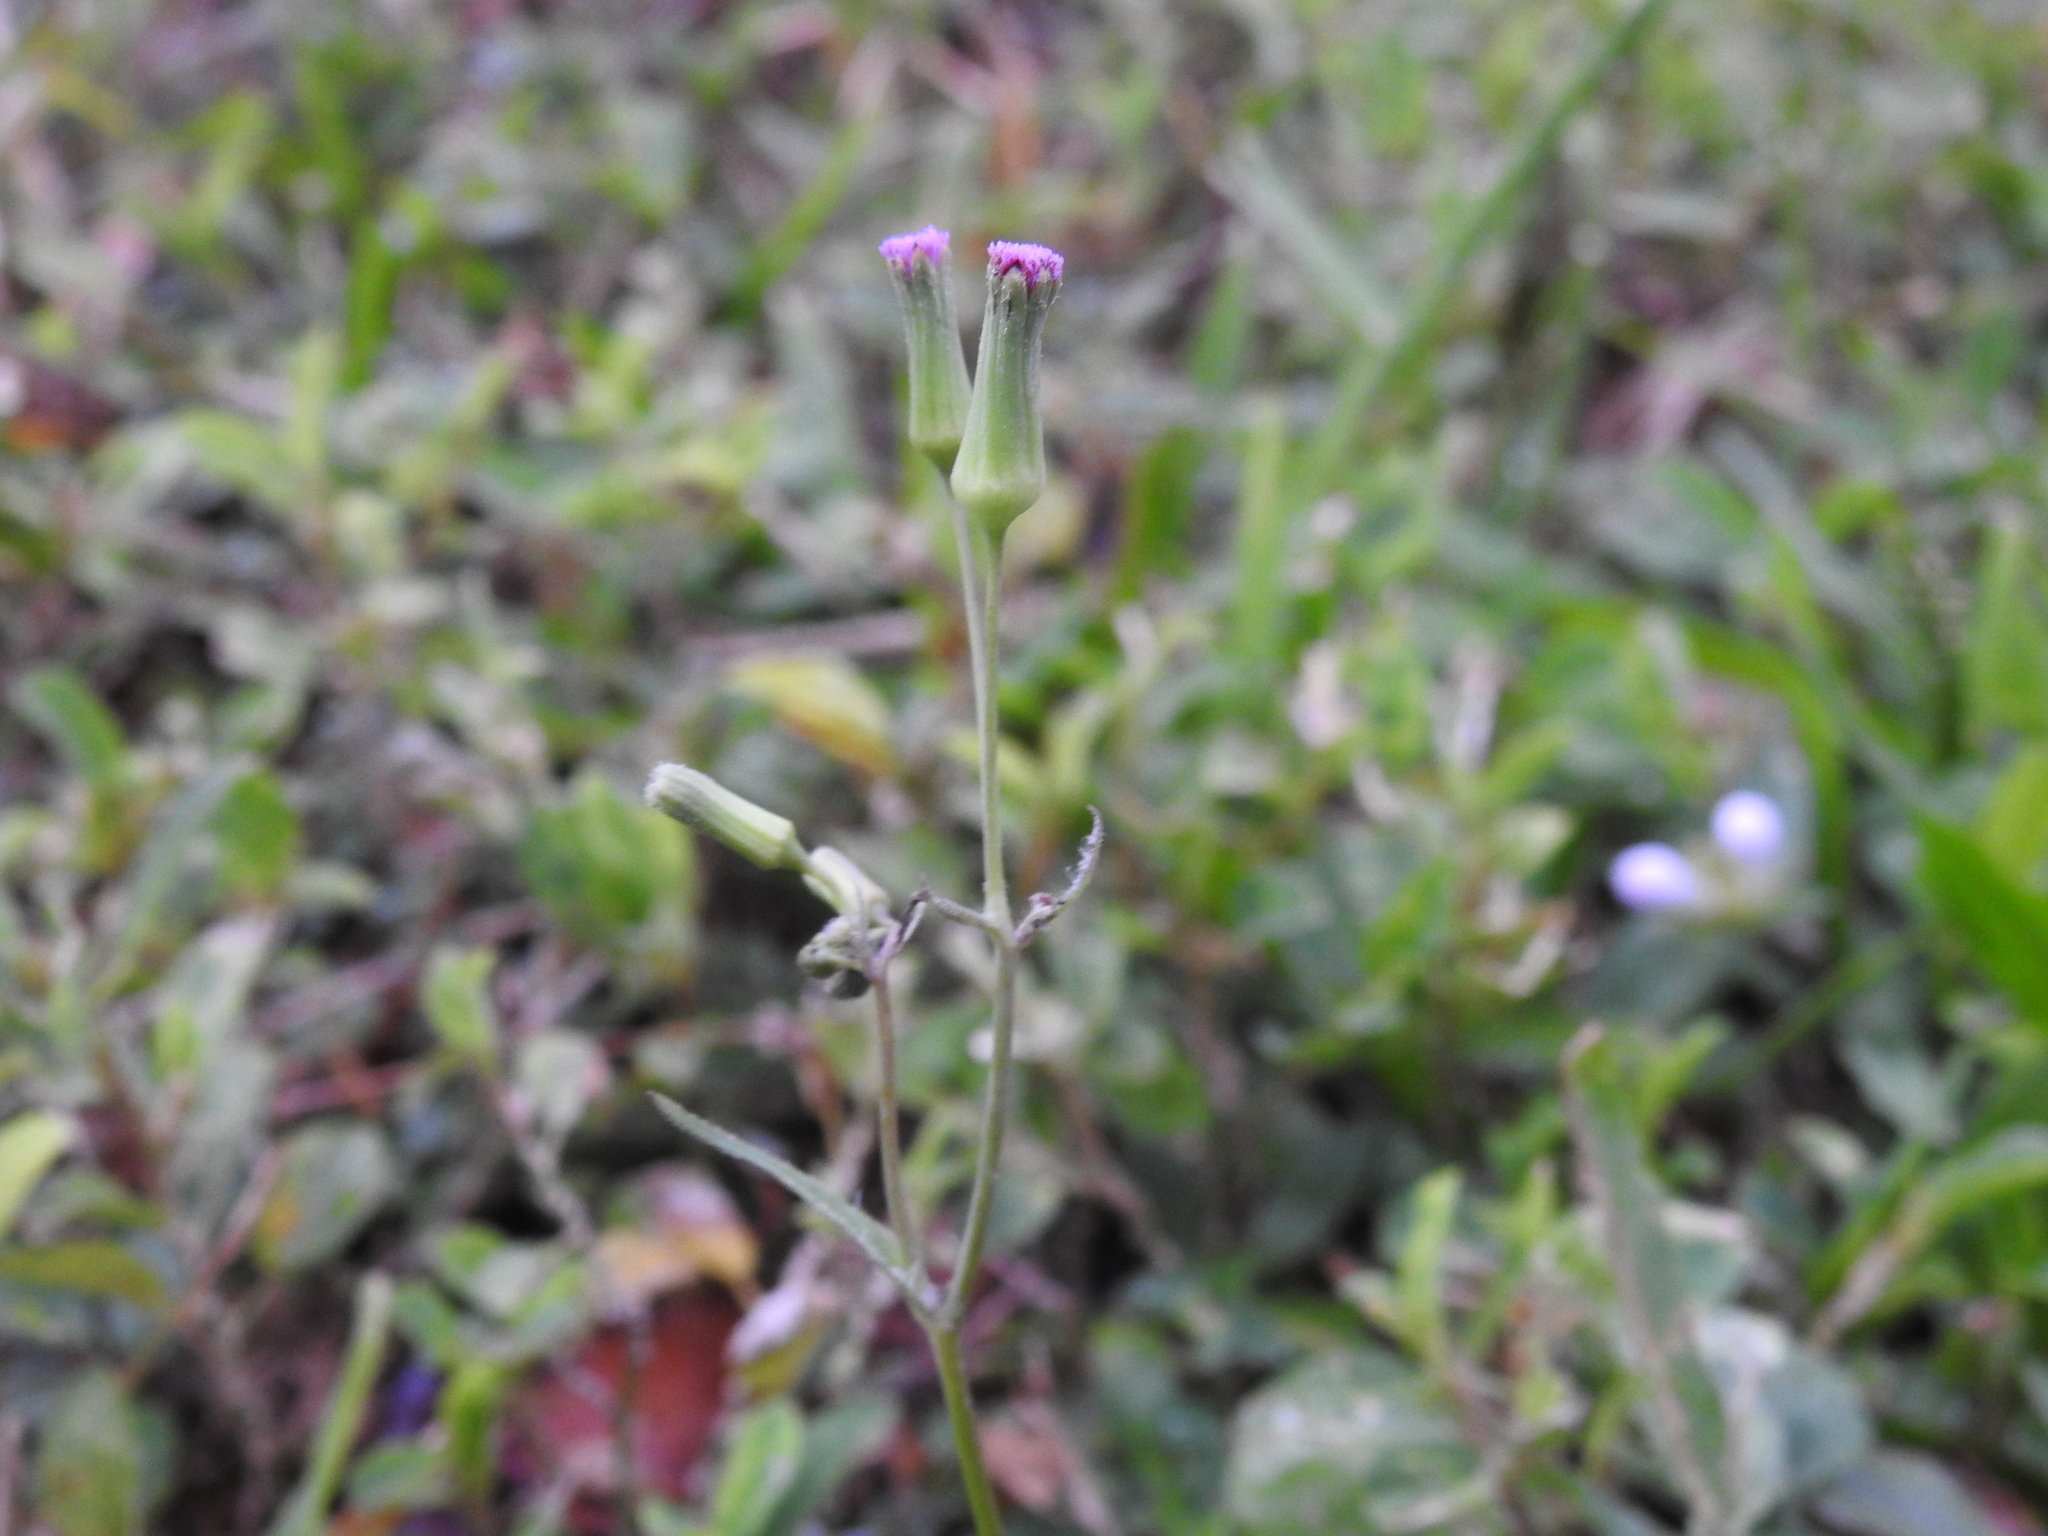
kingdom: Plantae
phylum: Tracheophyta
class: Magnoliopsida
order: Asterales
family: Asteraceae
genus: Emilia
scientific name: Emilia sonchifolia
